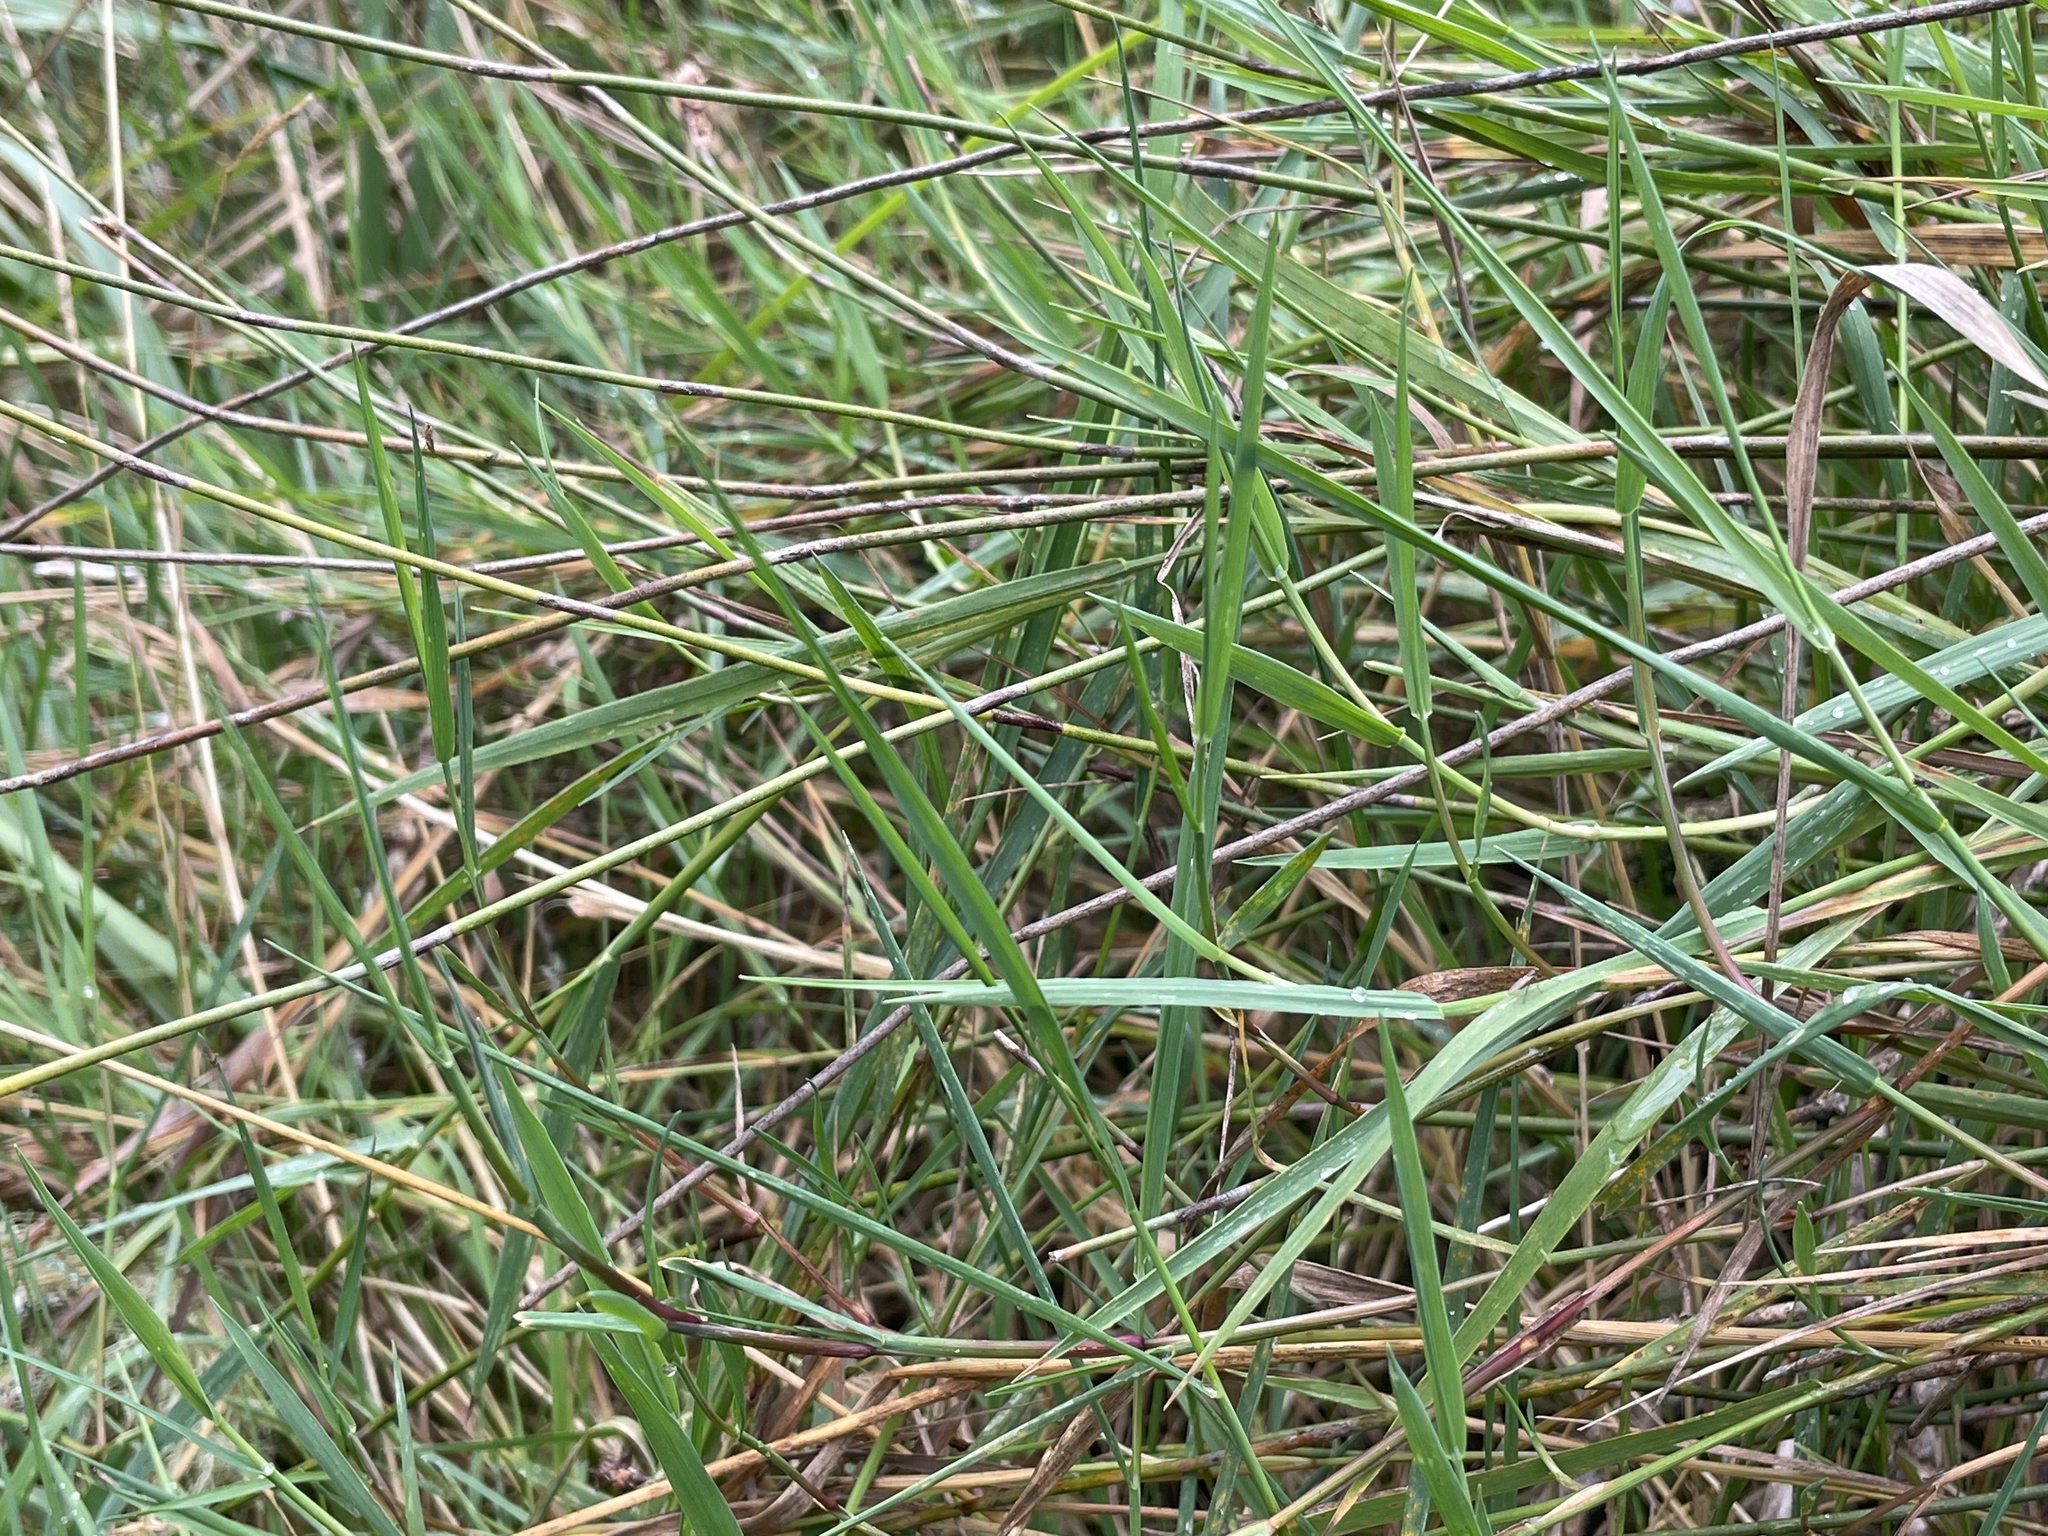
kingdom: Plantae
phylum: Tracheophyta
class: Liliopsida
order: Poales
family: Poaceae
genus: Agrostis
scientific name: Agrostis stolonifera
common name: Creeping bentgrass
